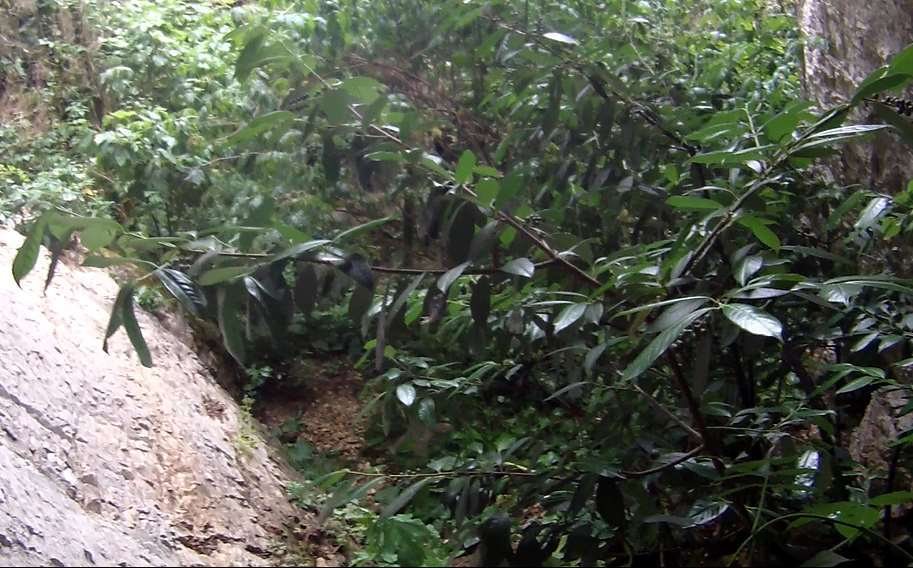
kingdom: Plantae
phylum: Tracheophyta
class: Magnoliopsida
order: Rosales
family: Rosaceae
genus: Prunus
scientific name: Prunus laurocerasus
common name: Cherry laurel
